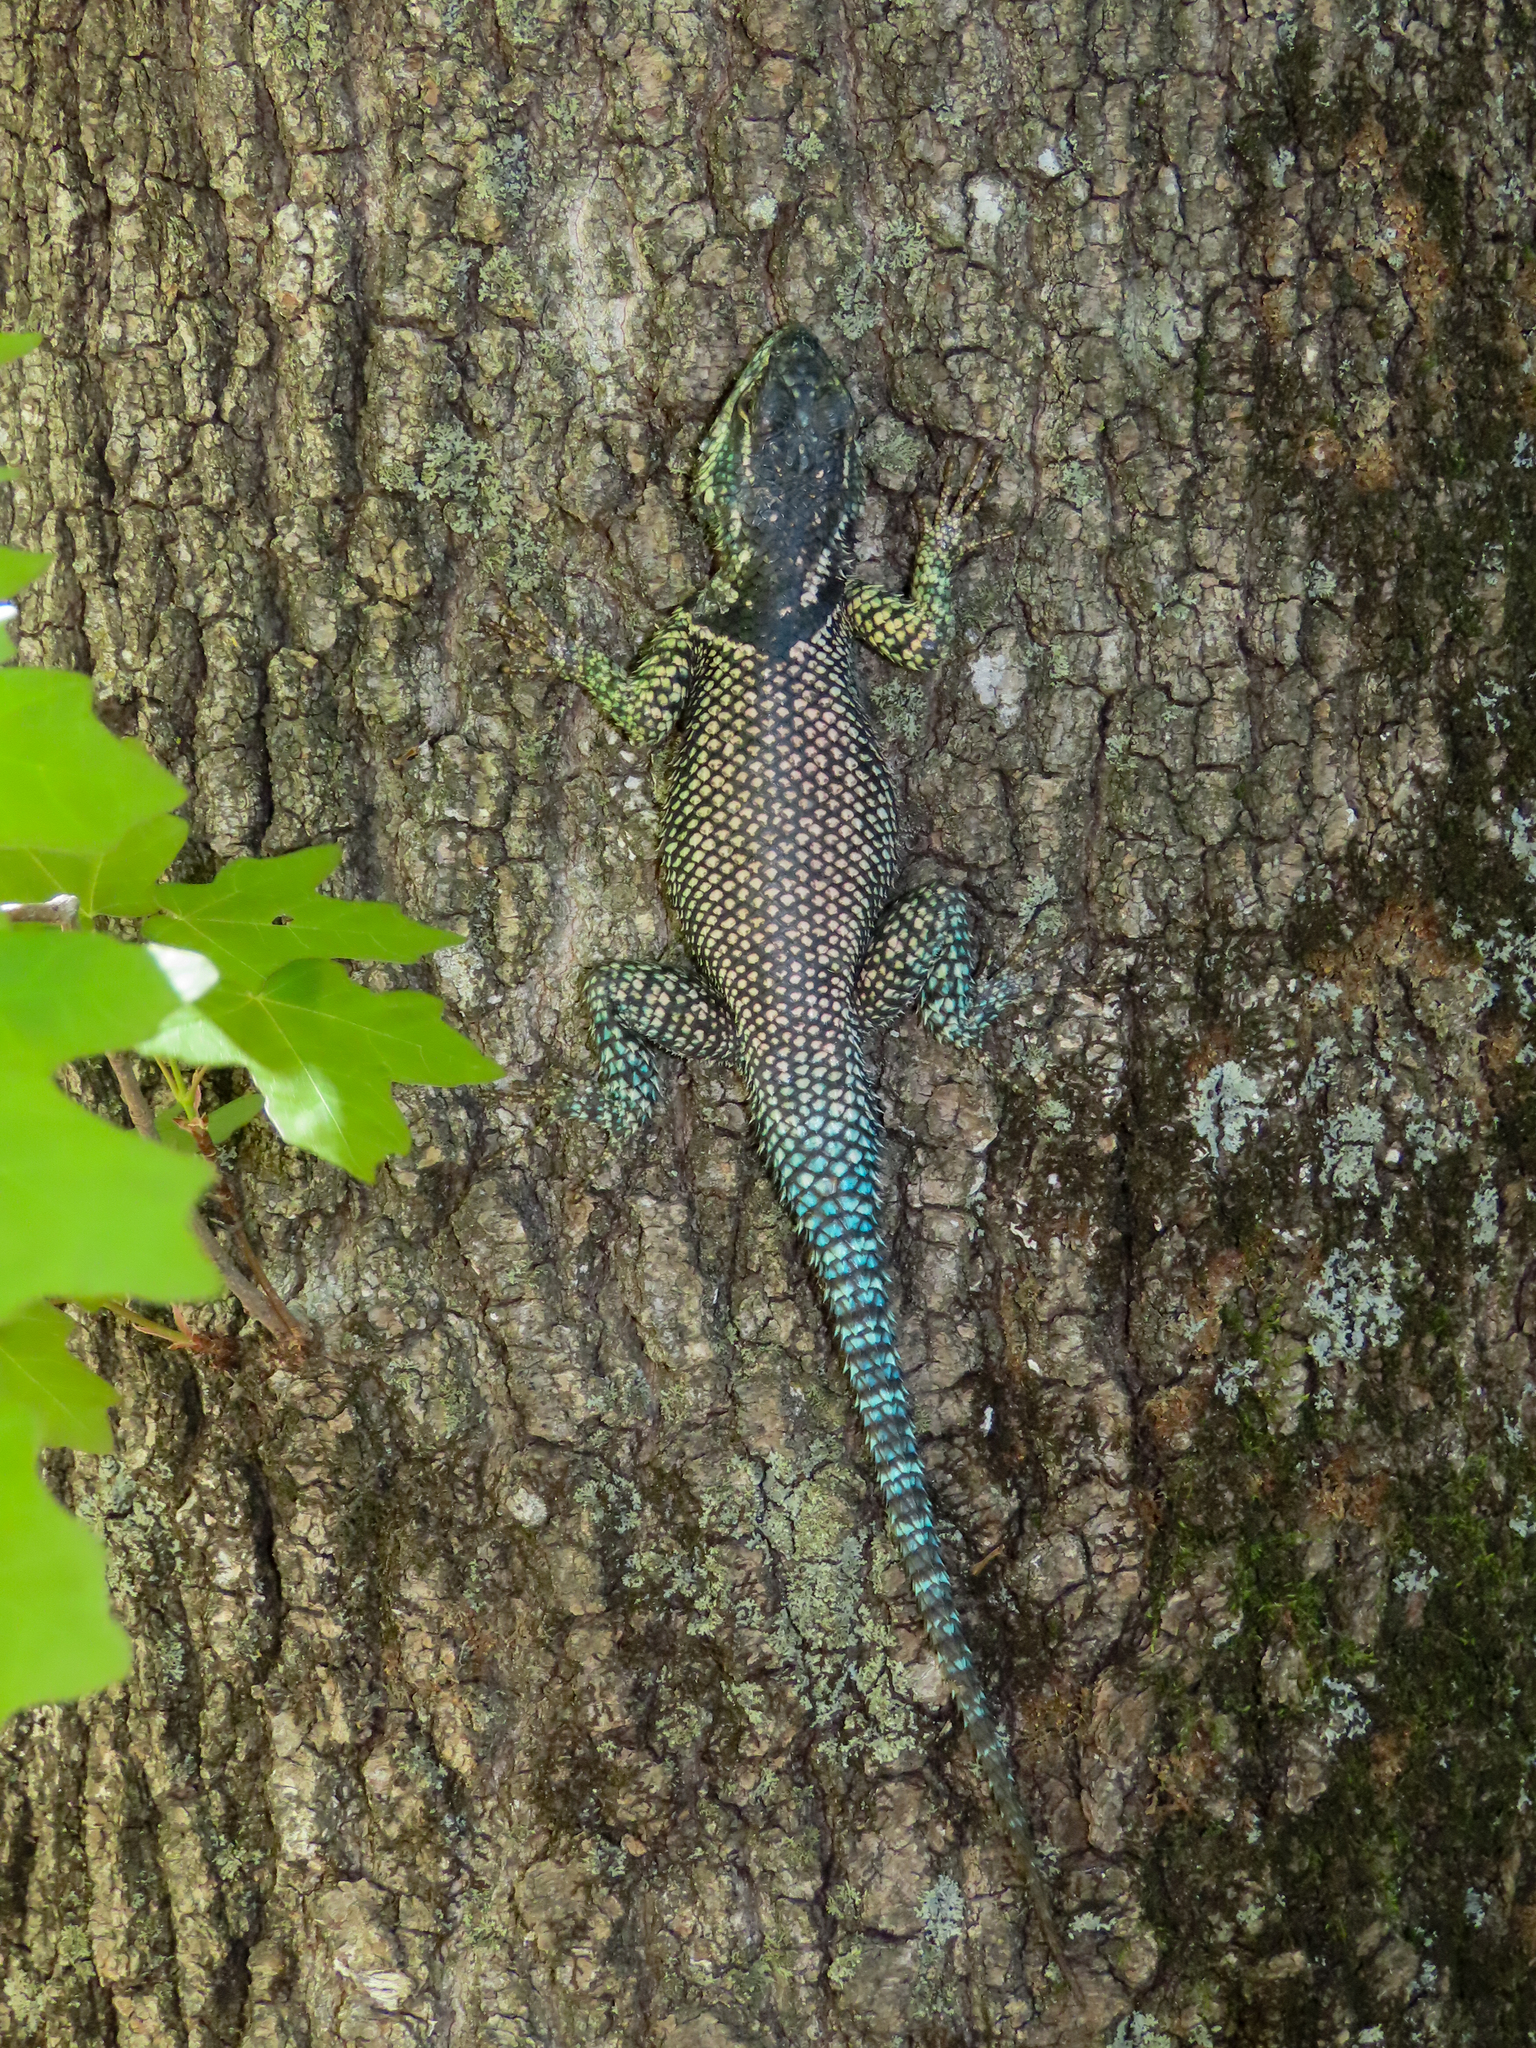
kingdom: Animalia
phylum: Chordata
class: Squamata
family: Phrynosomatidae
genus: Sceloporus
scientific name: Sceloporus jarrovii
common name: Yarrow's spiny lizard
